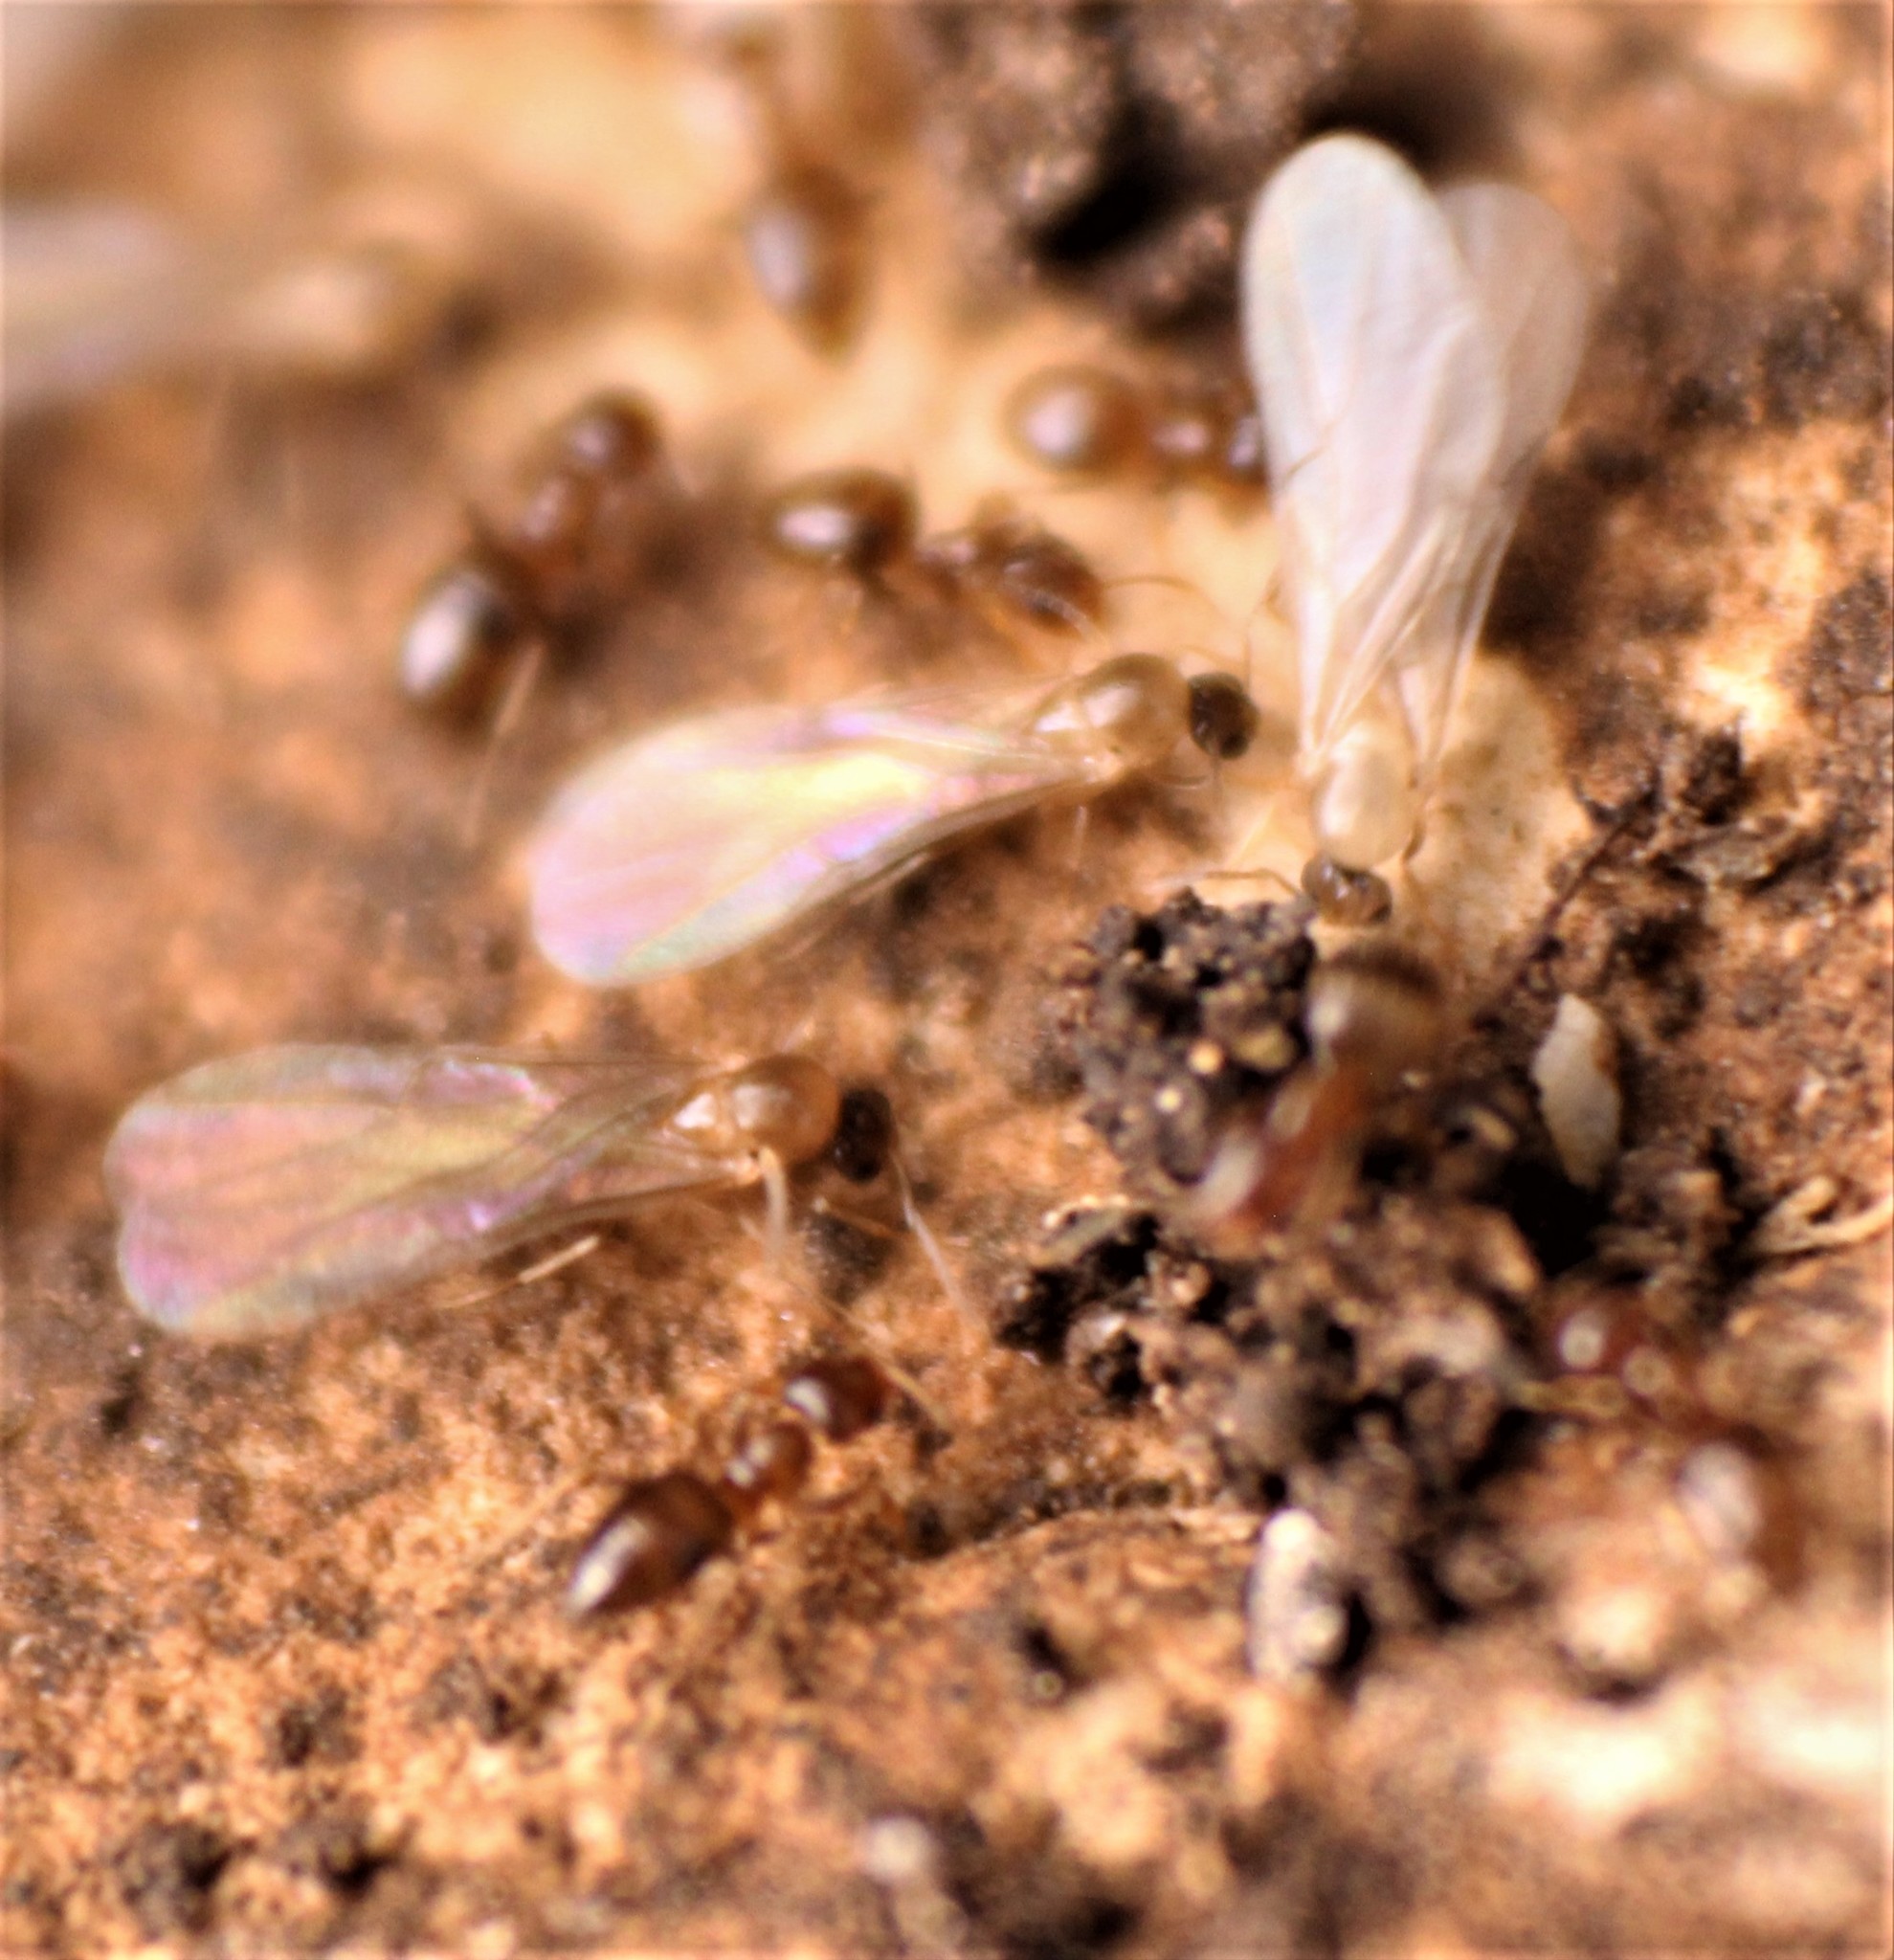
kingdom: Animalia
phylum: Arthropoda
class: Insecta
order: Hymenoptera
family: Formicidae
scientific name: Formicidae
